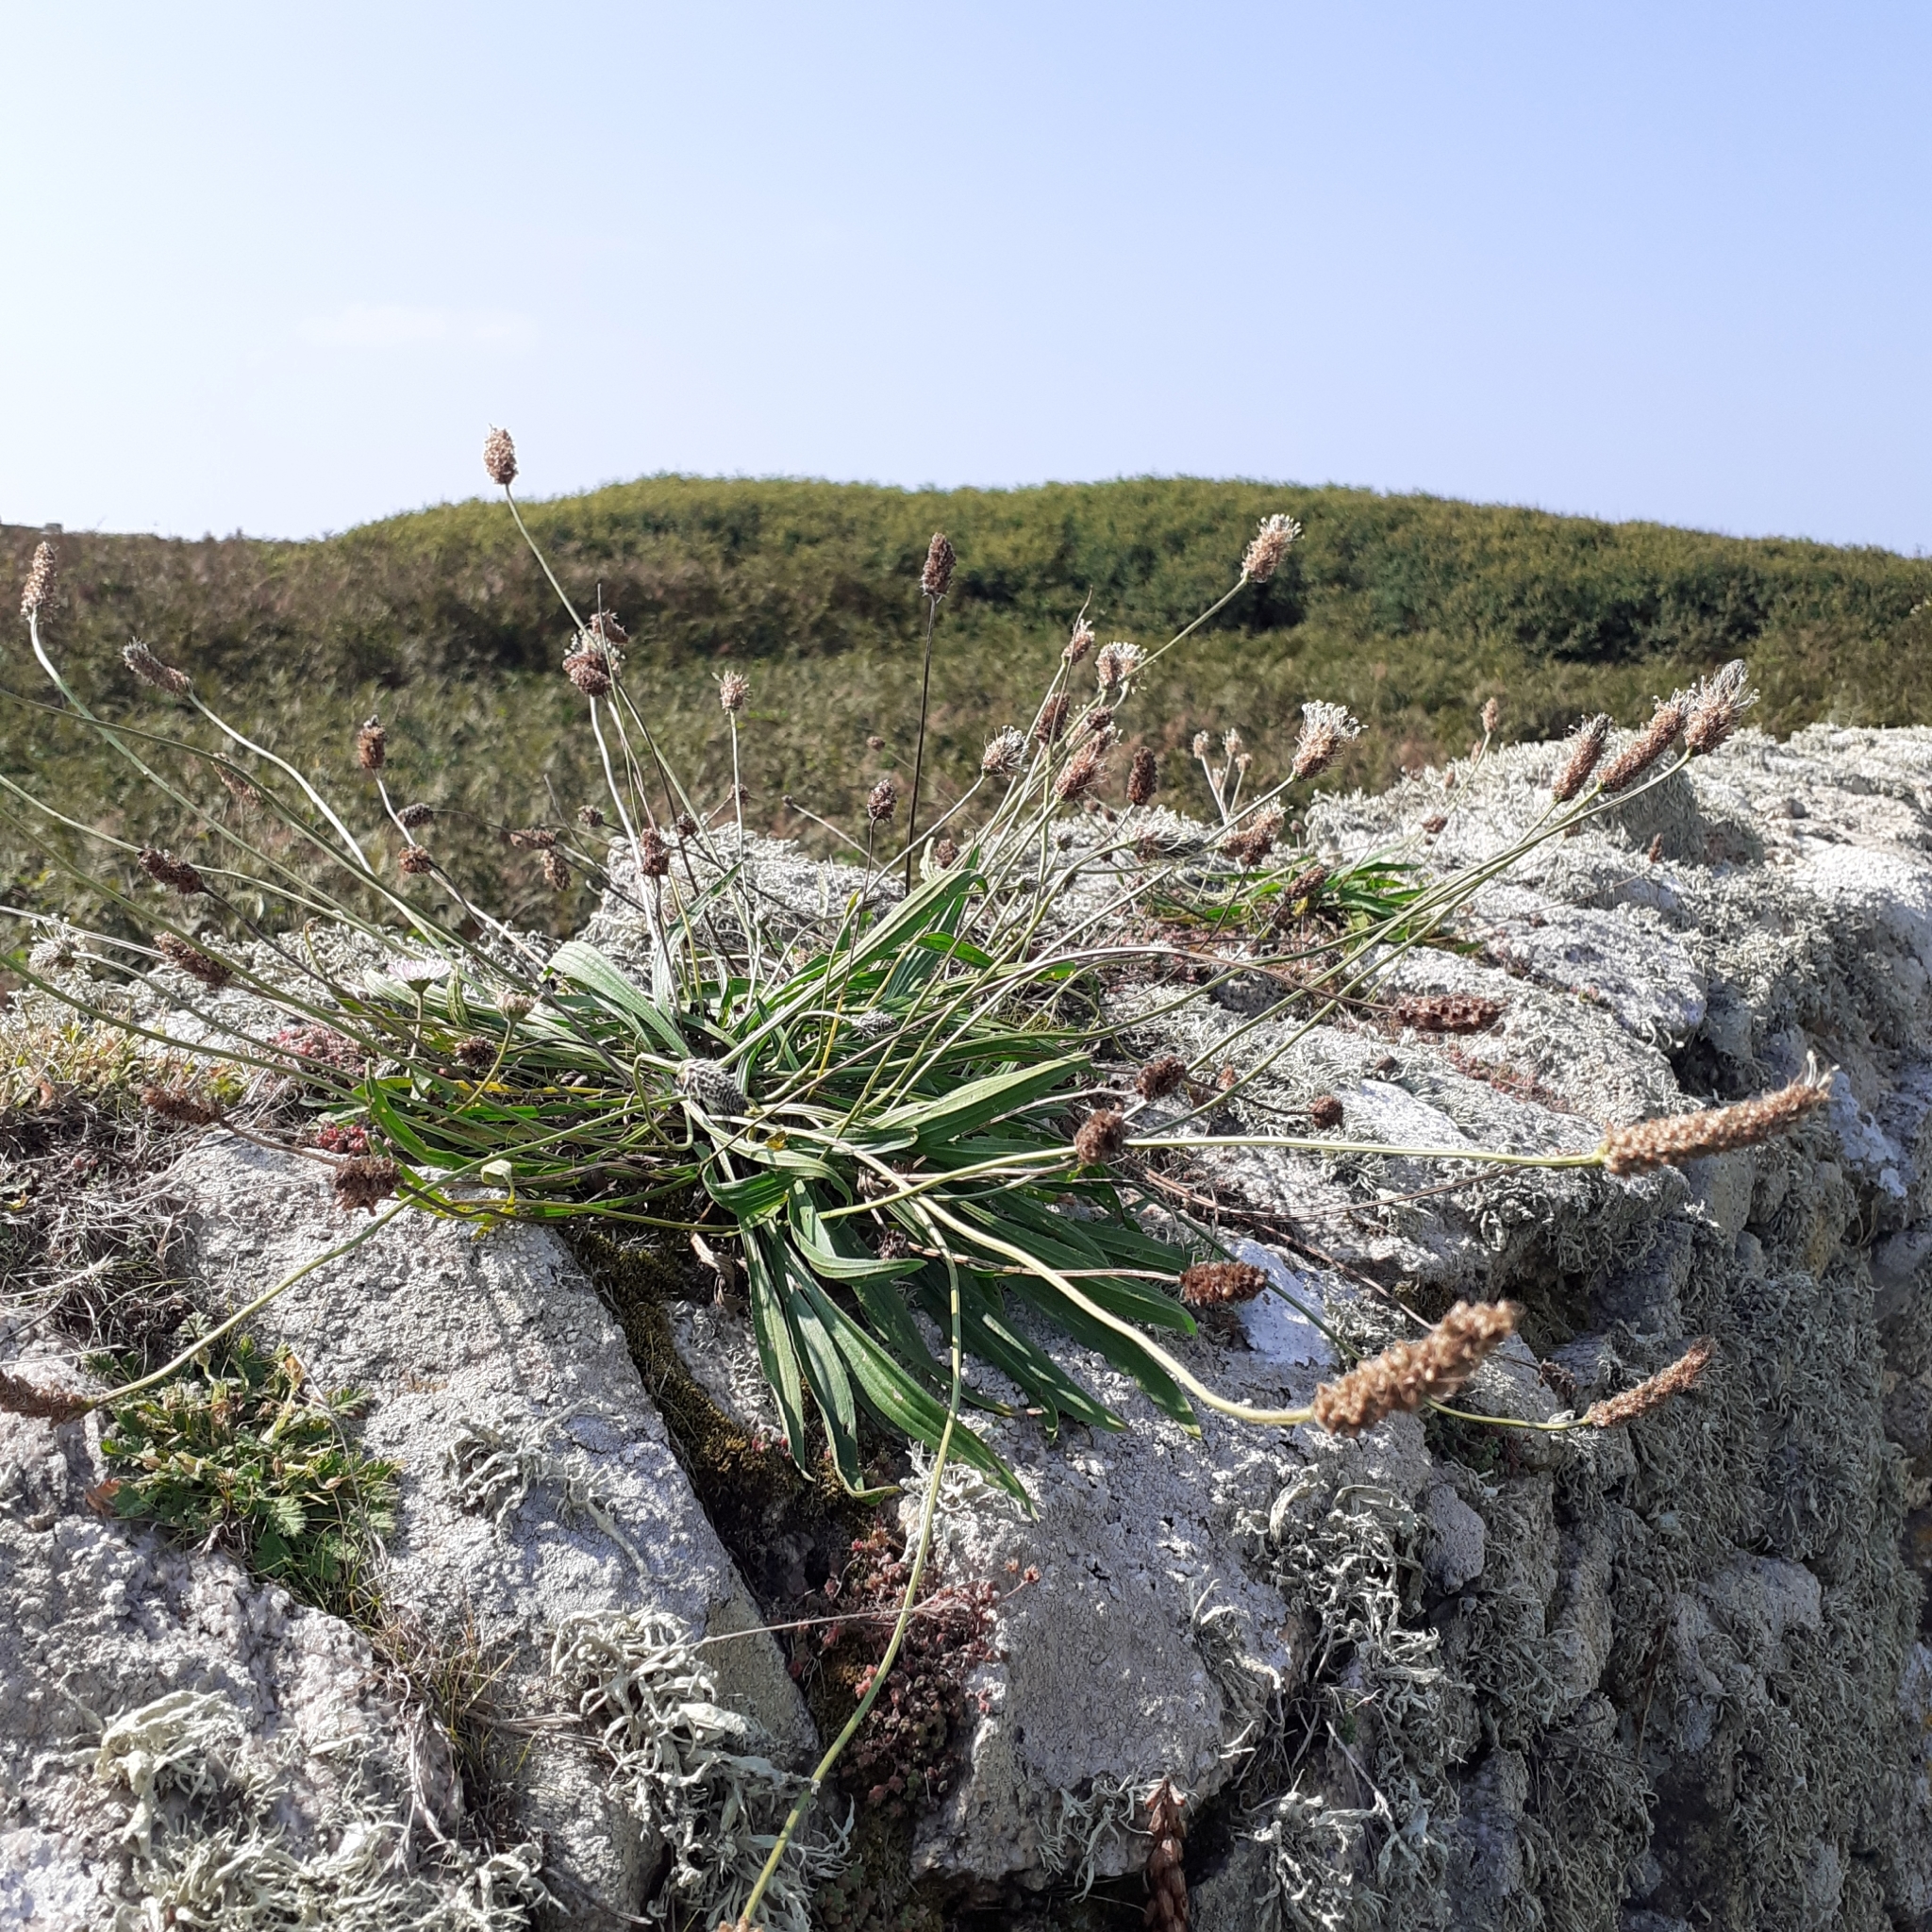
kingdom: Plantae
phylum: Tracheophyta
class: Magnoliopsida
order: Lamiales
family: Plantaginaceae
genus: Plantago
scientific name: Plantago lanceolata
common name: Ribwort plantain
